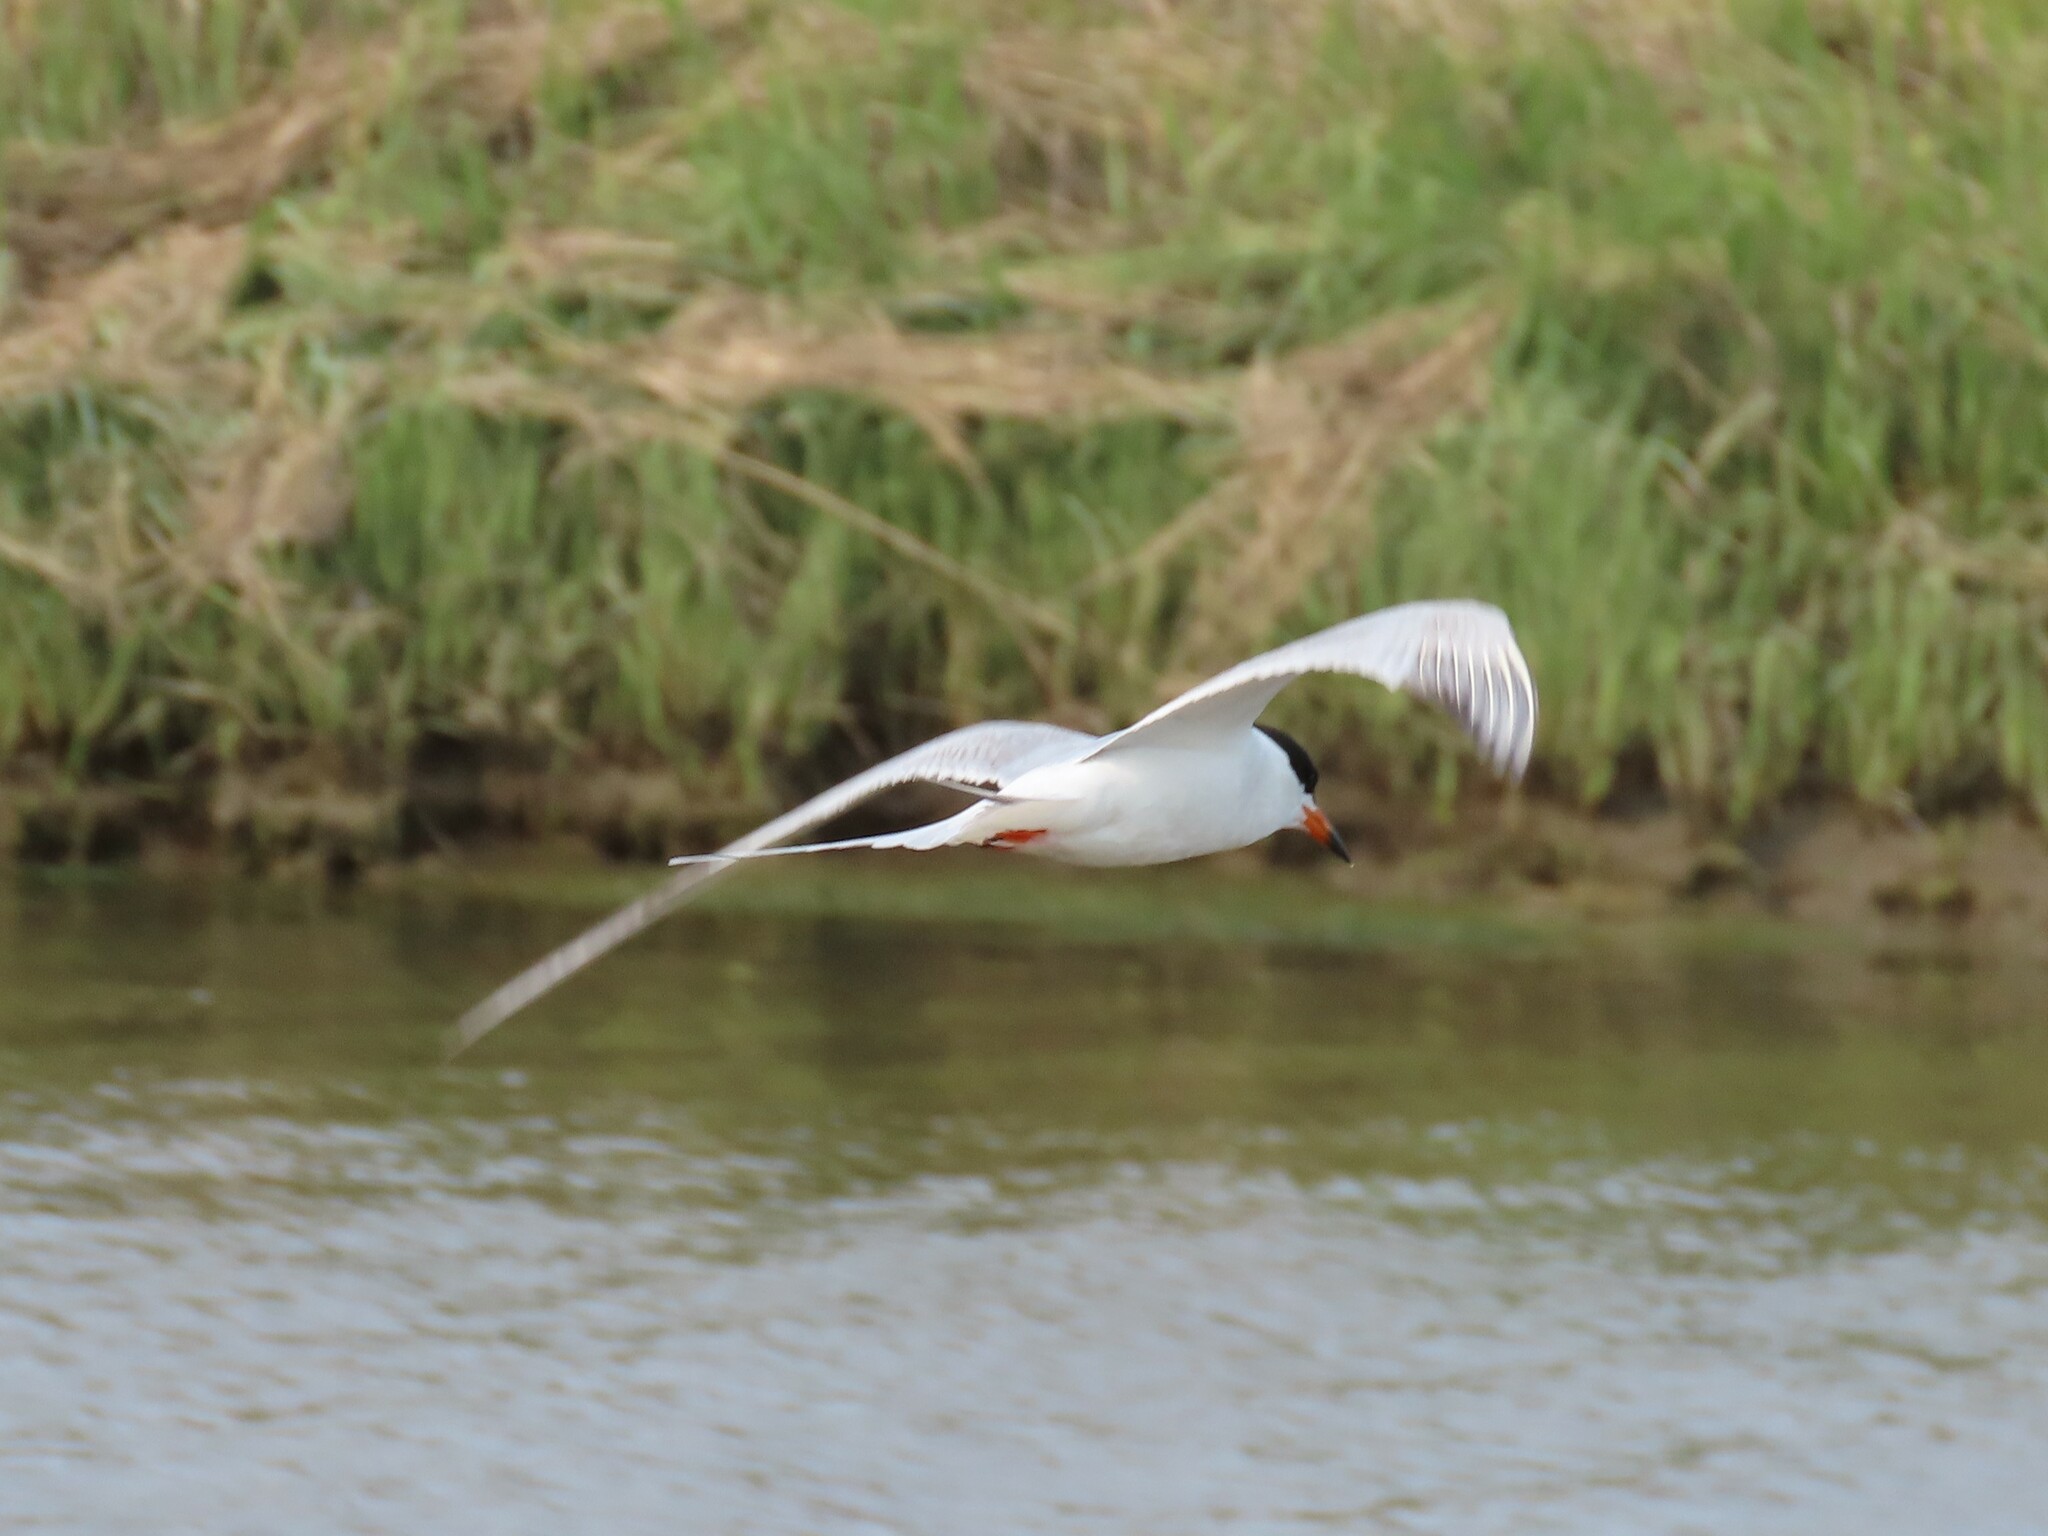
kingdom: Animalia
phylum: Chordata
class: Aves
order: Charadriiformes
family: Laridae
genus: Sterna
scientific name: Sterna forsteri
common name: Forster's tern
